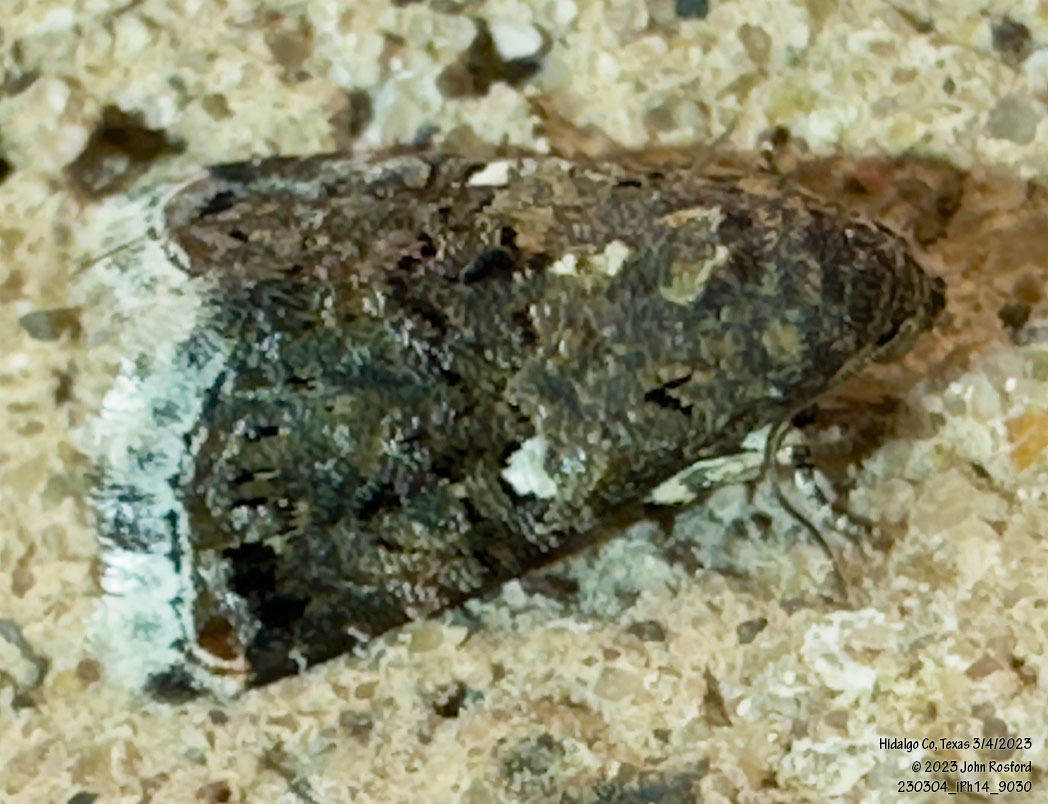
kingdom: Animalia
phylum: Arthropoda
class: Insecta
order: Lepidoptera
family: Noctuidae
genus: Tripudia
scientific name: Tripudia luxuriosa
